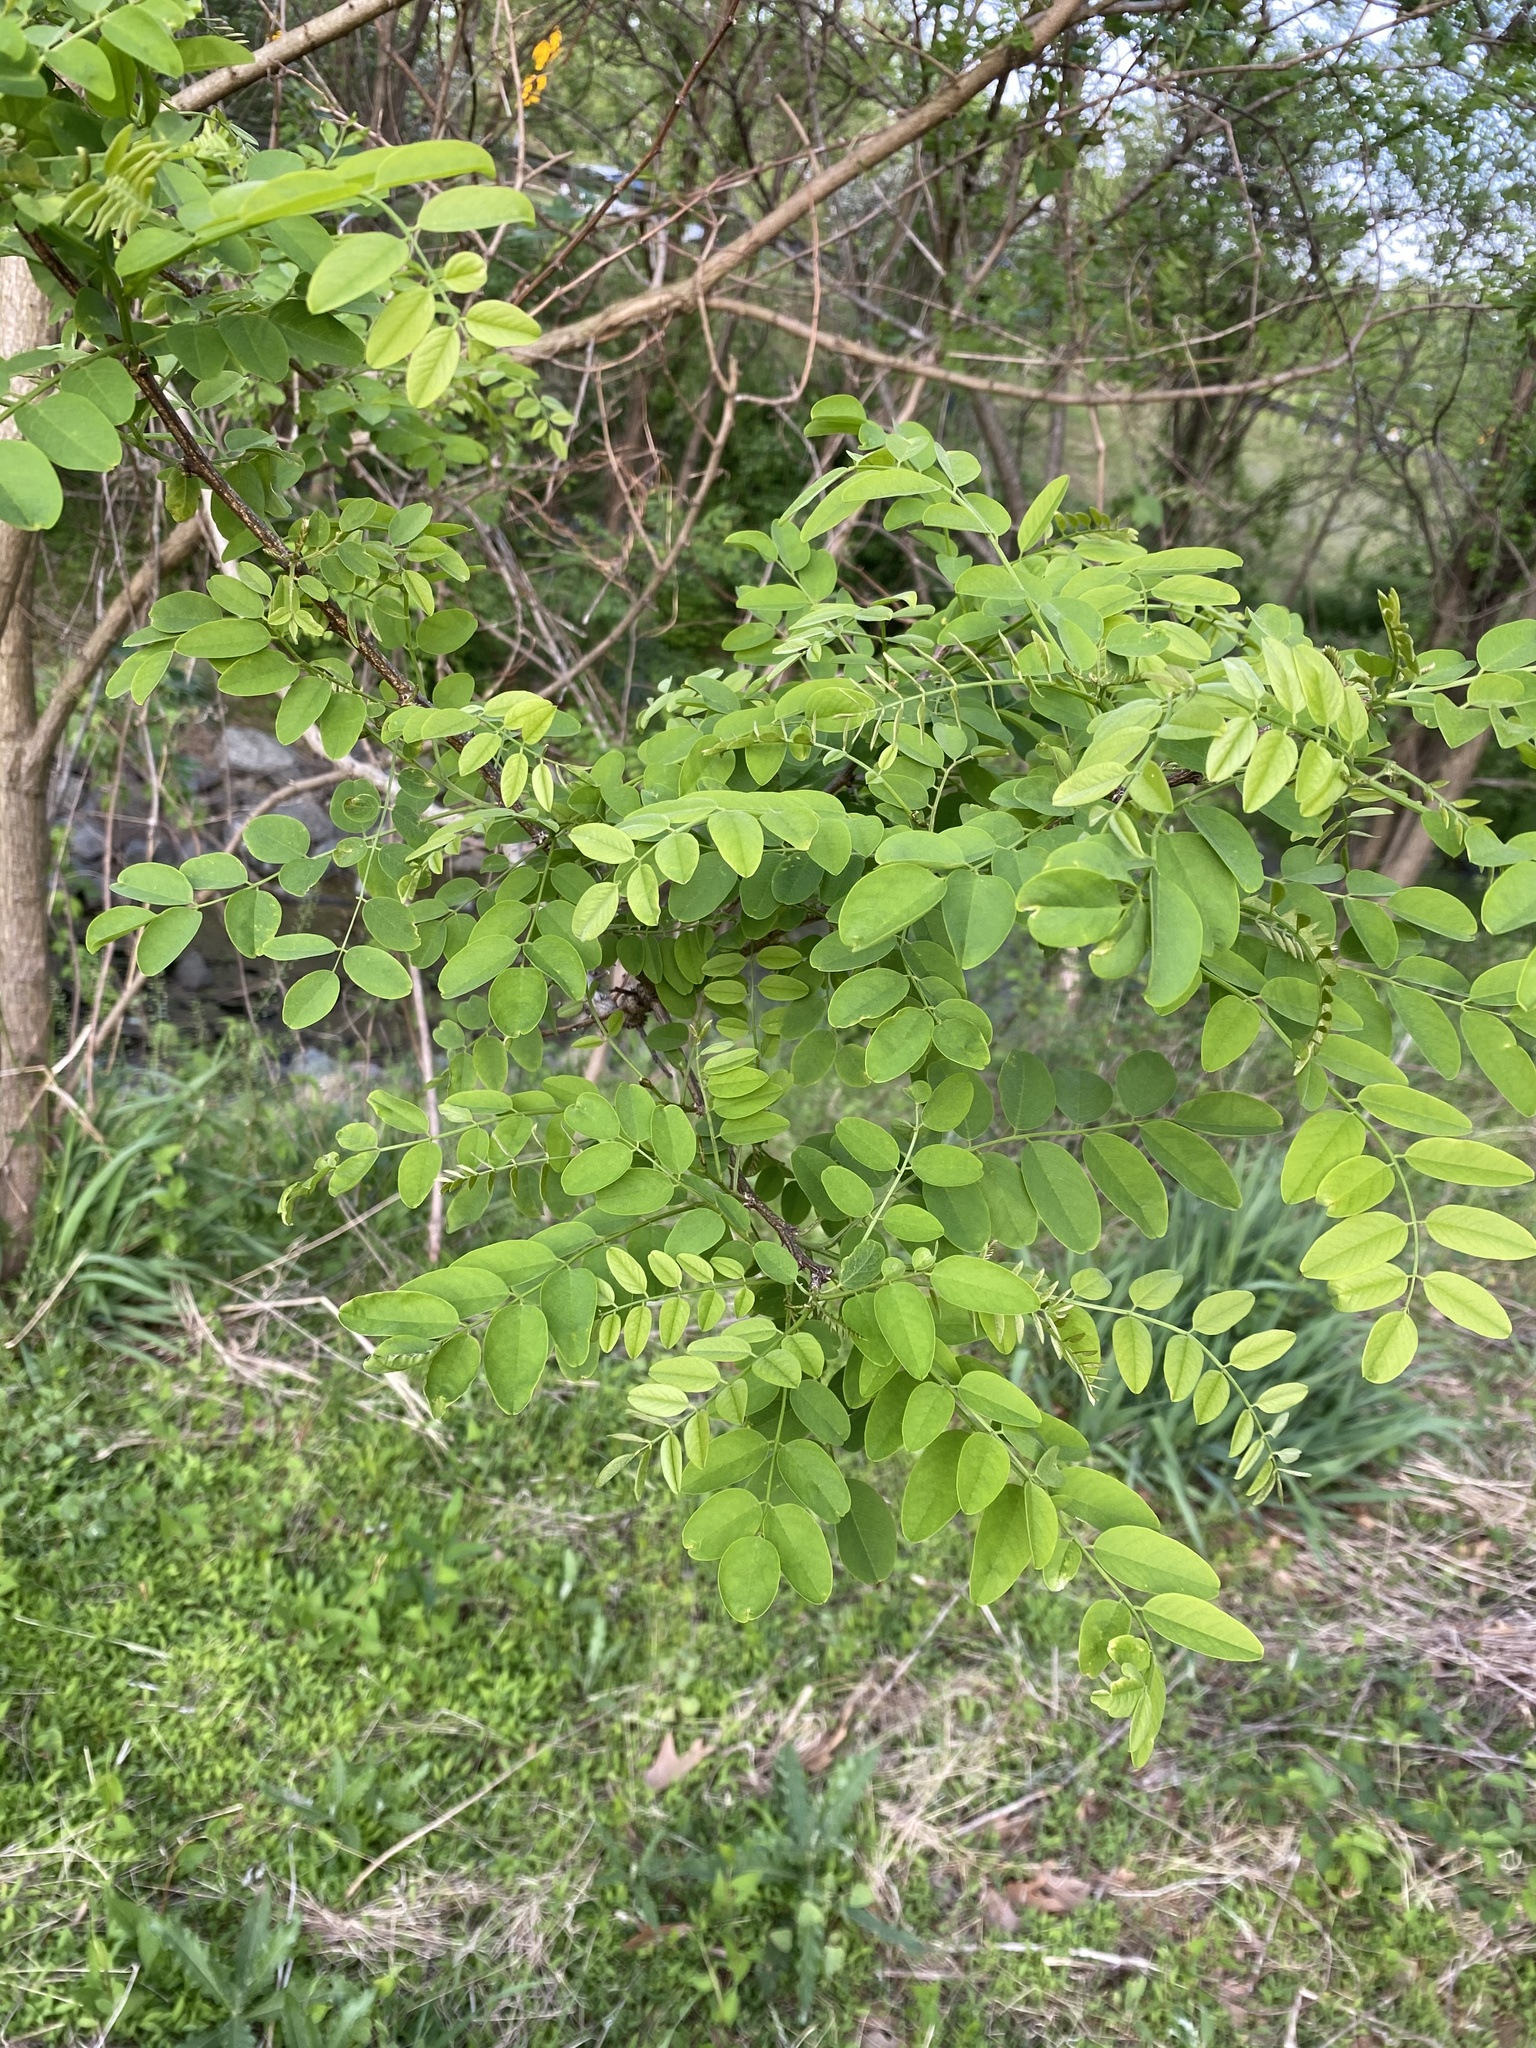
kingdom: Plantae
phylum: Tracheophyta
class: Magnoliopsida
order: Fabales
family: Fabaceae
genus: Robinia
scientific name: Robinia pseudoacacia
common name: Black locust
